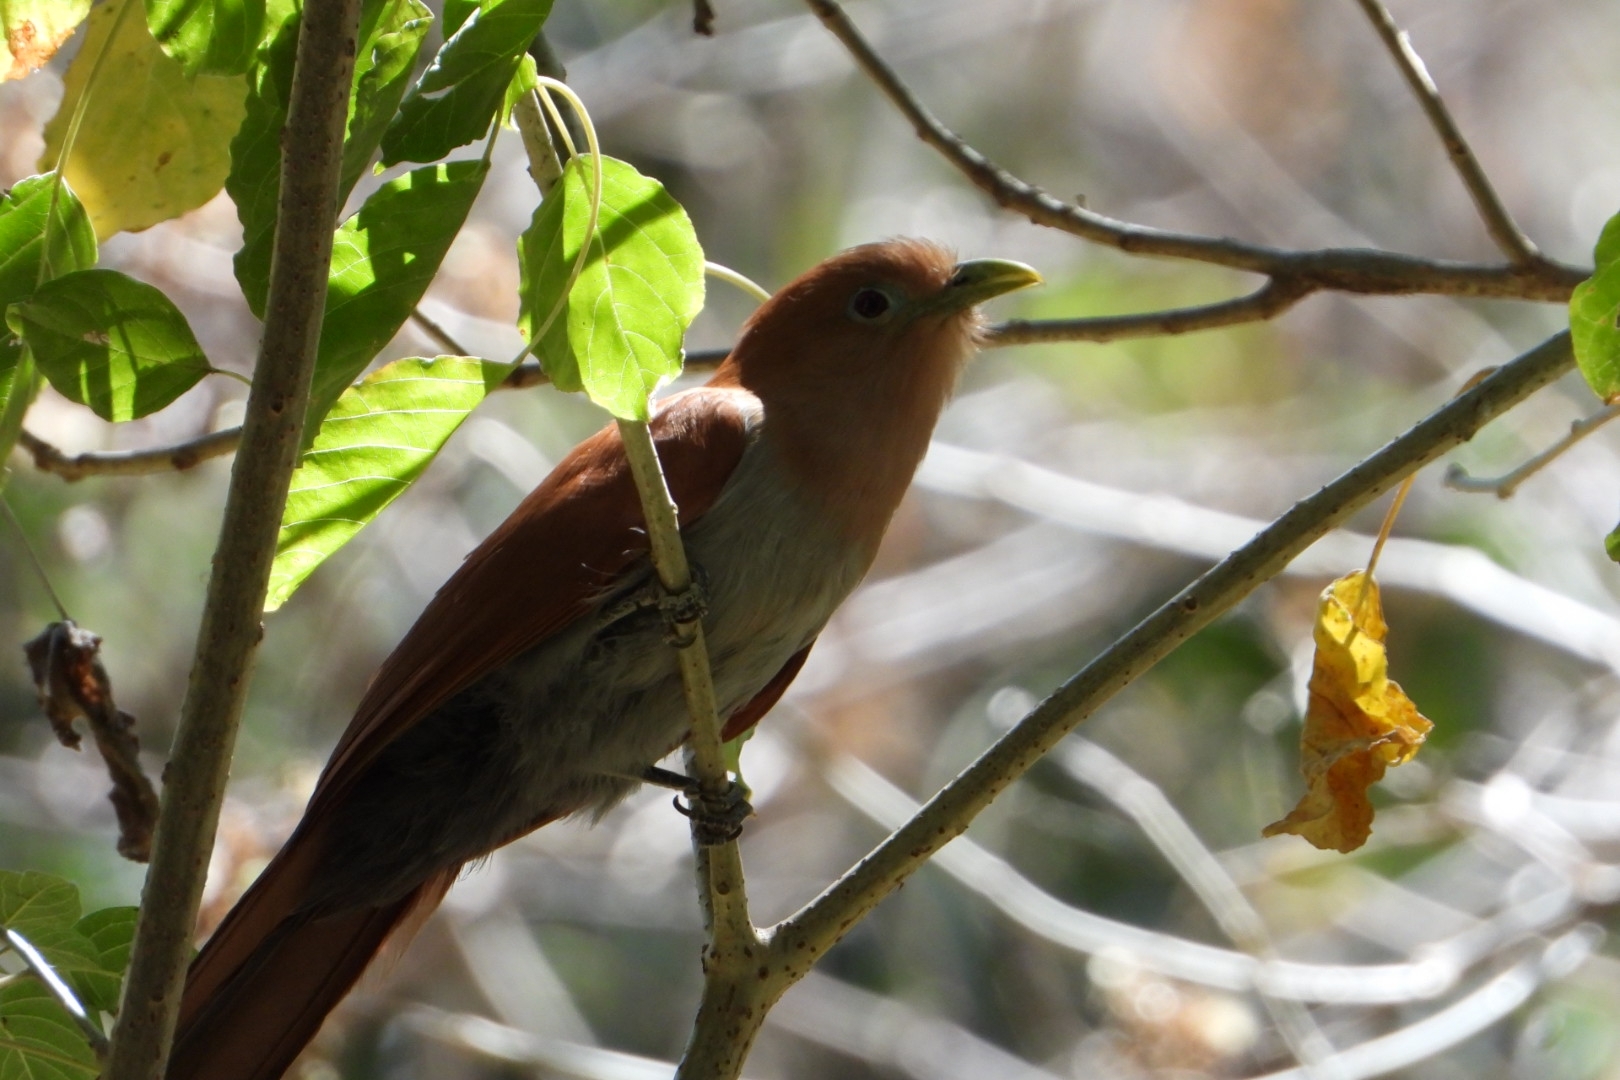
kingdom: Animalia
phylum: Chordata
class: Aves
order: Cuculiformes
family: Cuculidae
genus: Piaya
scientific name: Piaya cayana
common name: Squirrel cuckoo
